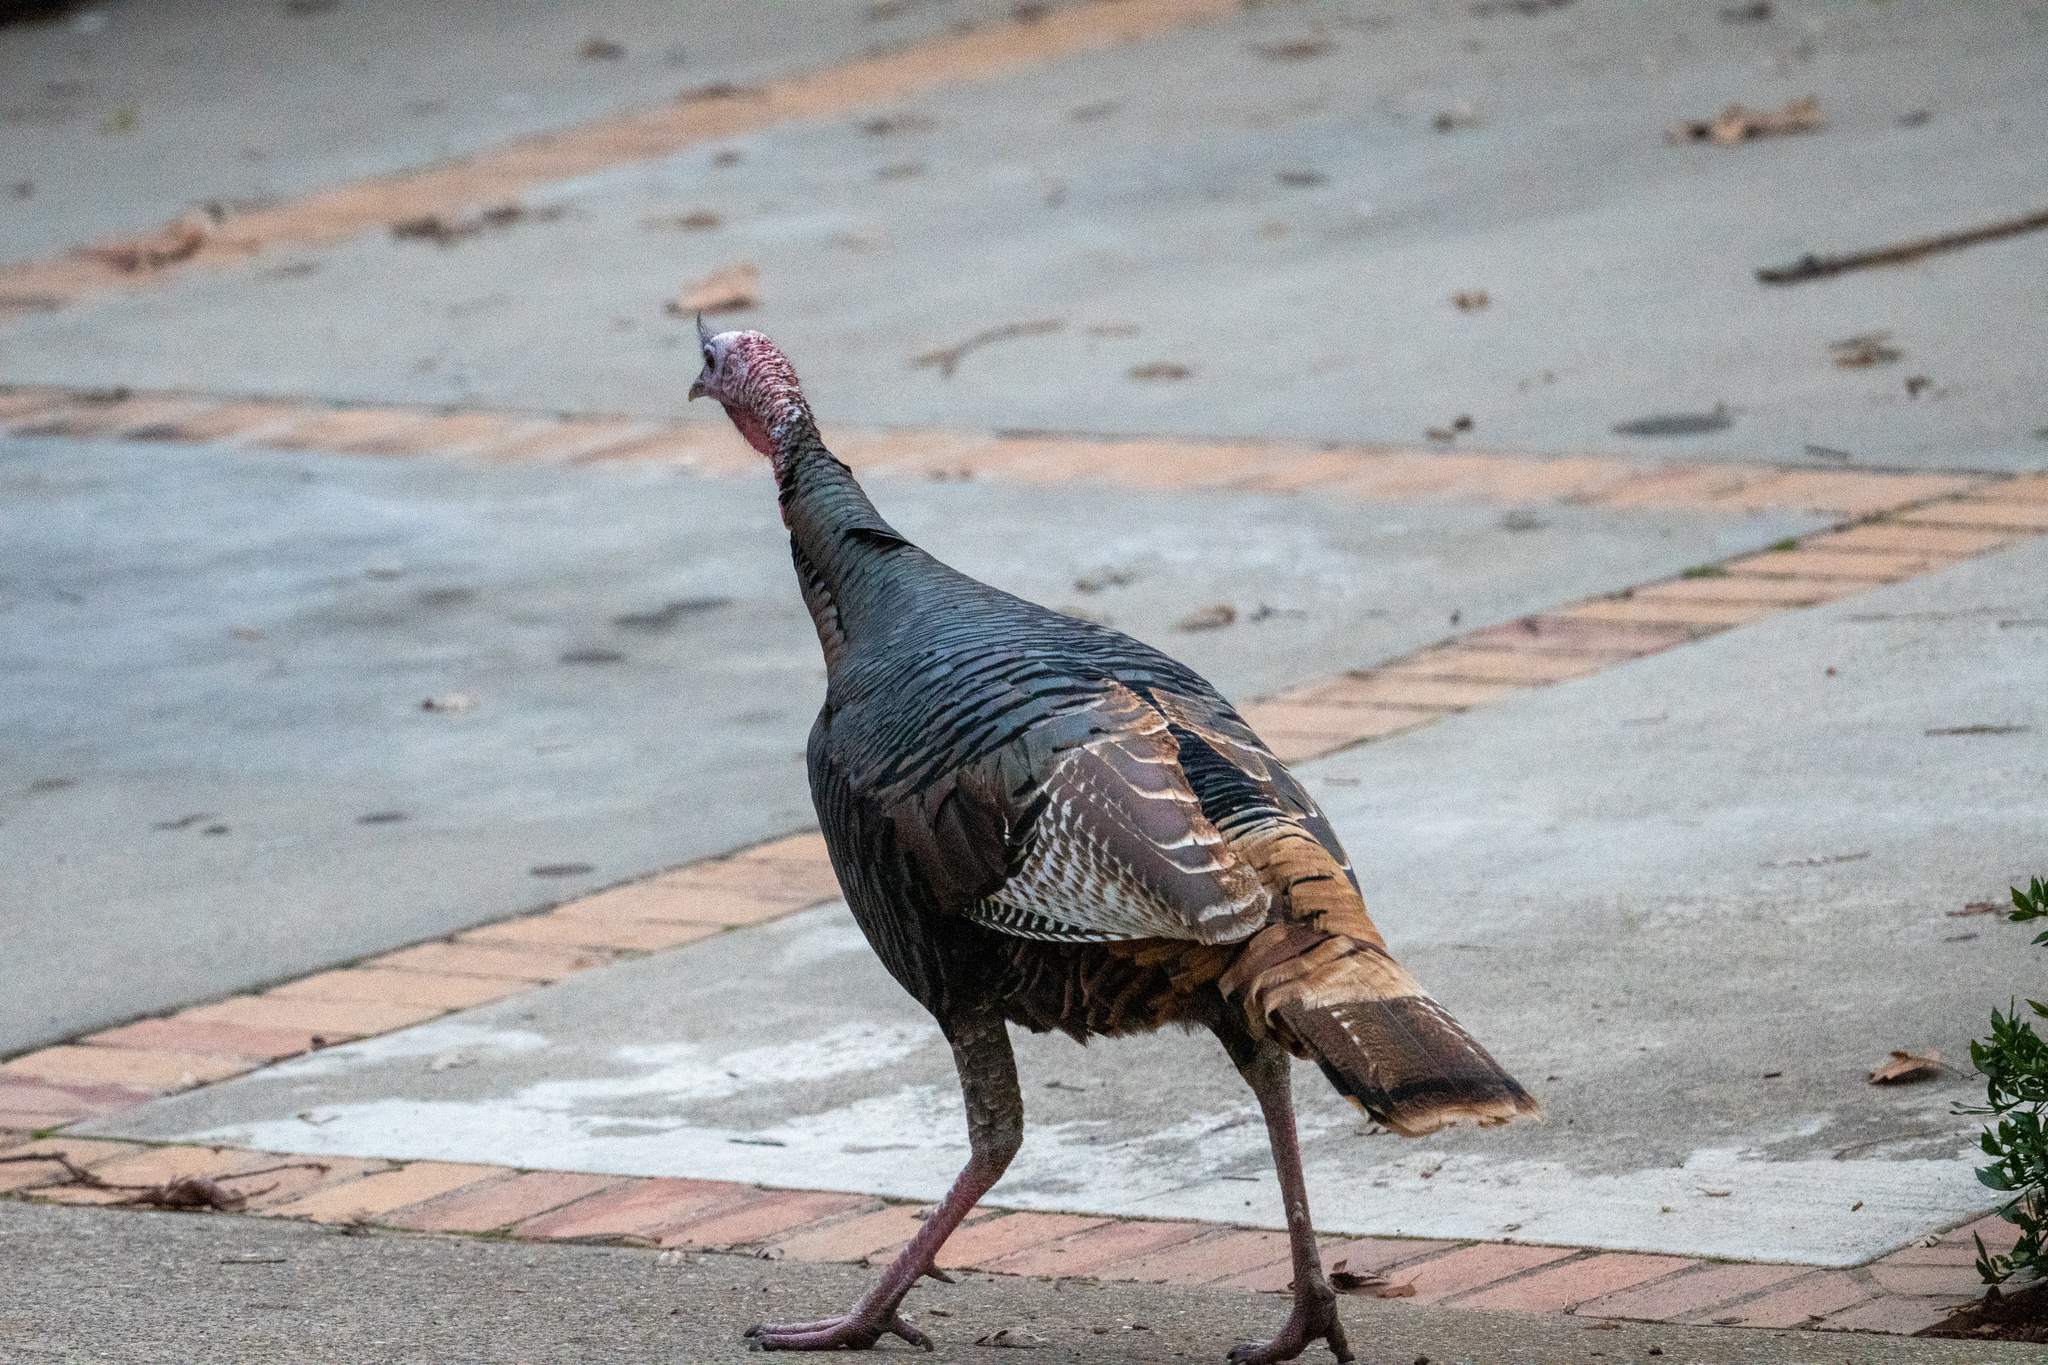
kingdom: Animalia
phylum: Chordata
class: Aves
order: Galliformes
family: Phasianidae
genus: Meleagris
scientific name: Meleagris gallopavo
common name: Wild turkey
